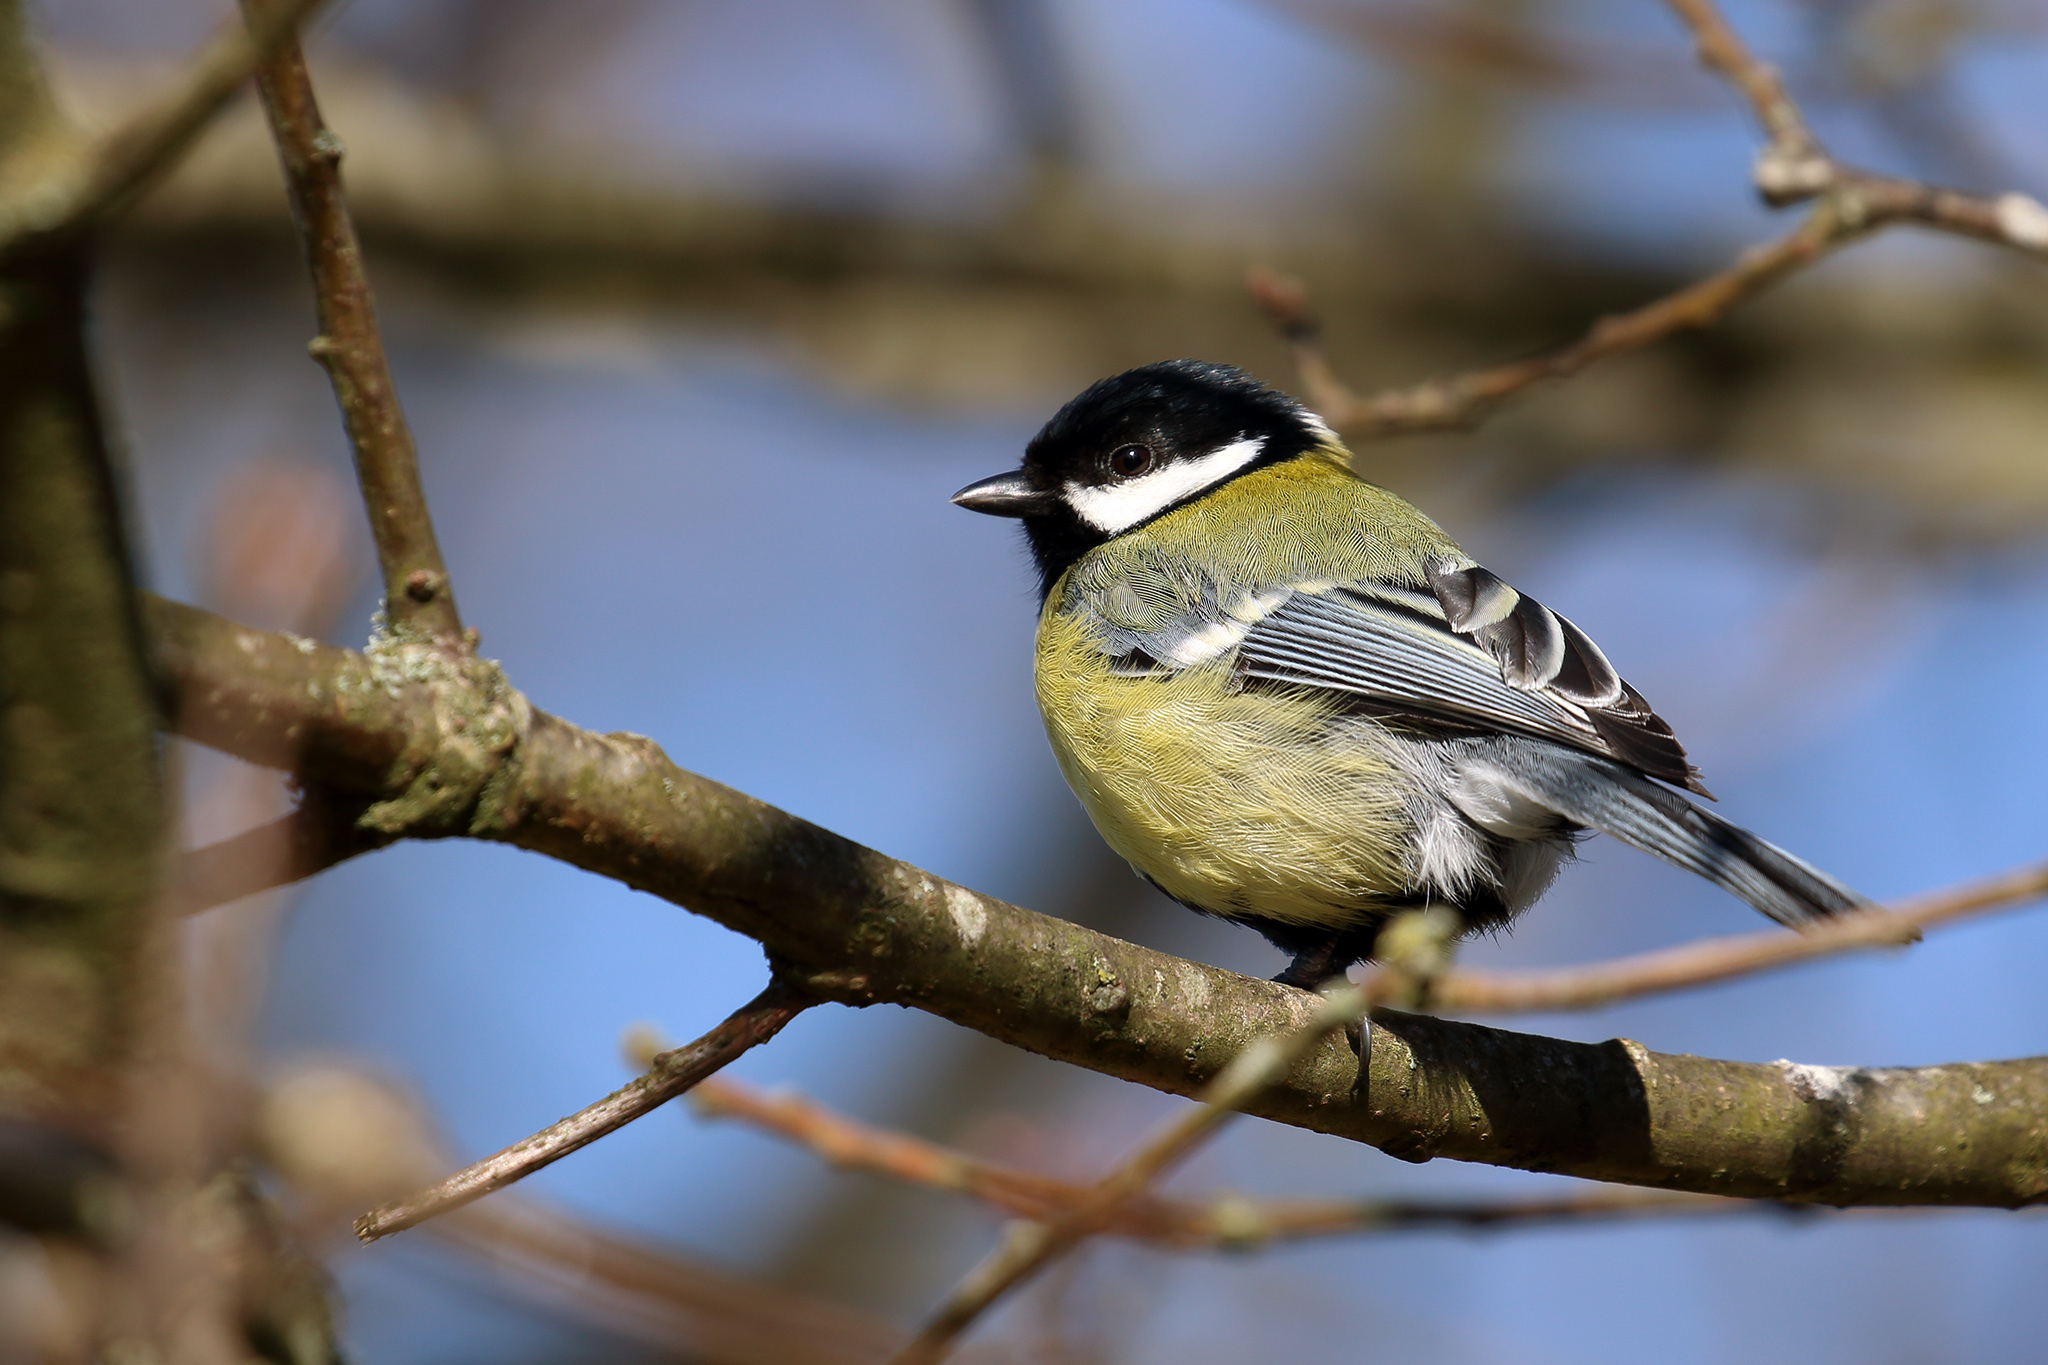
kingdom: Animalia
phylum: Chordata
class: Aves
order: Passeriformes
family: Paridae
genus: Parus
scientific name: Parus major
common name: Great tit
